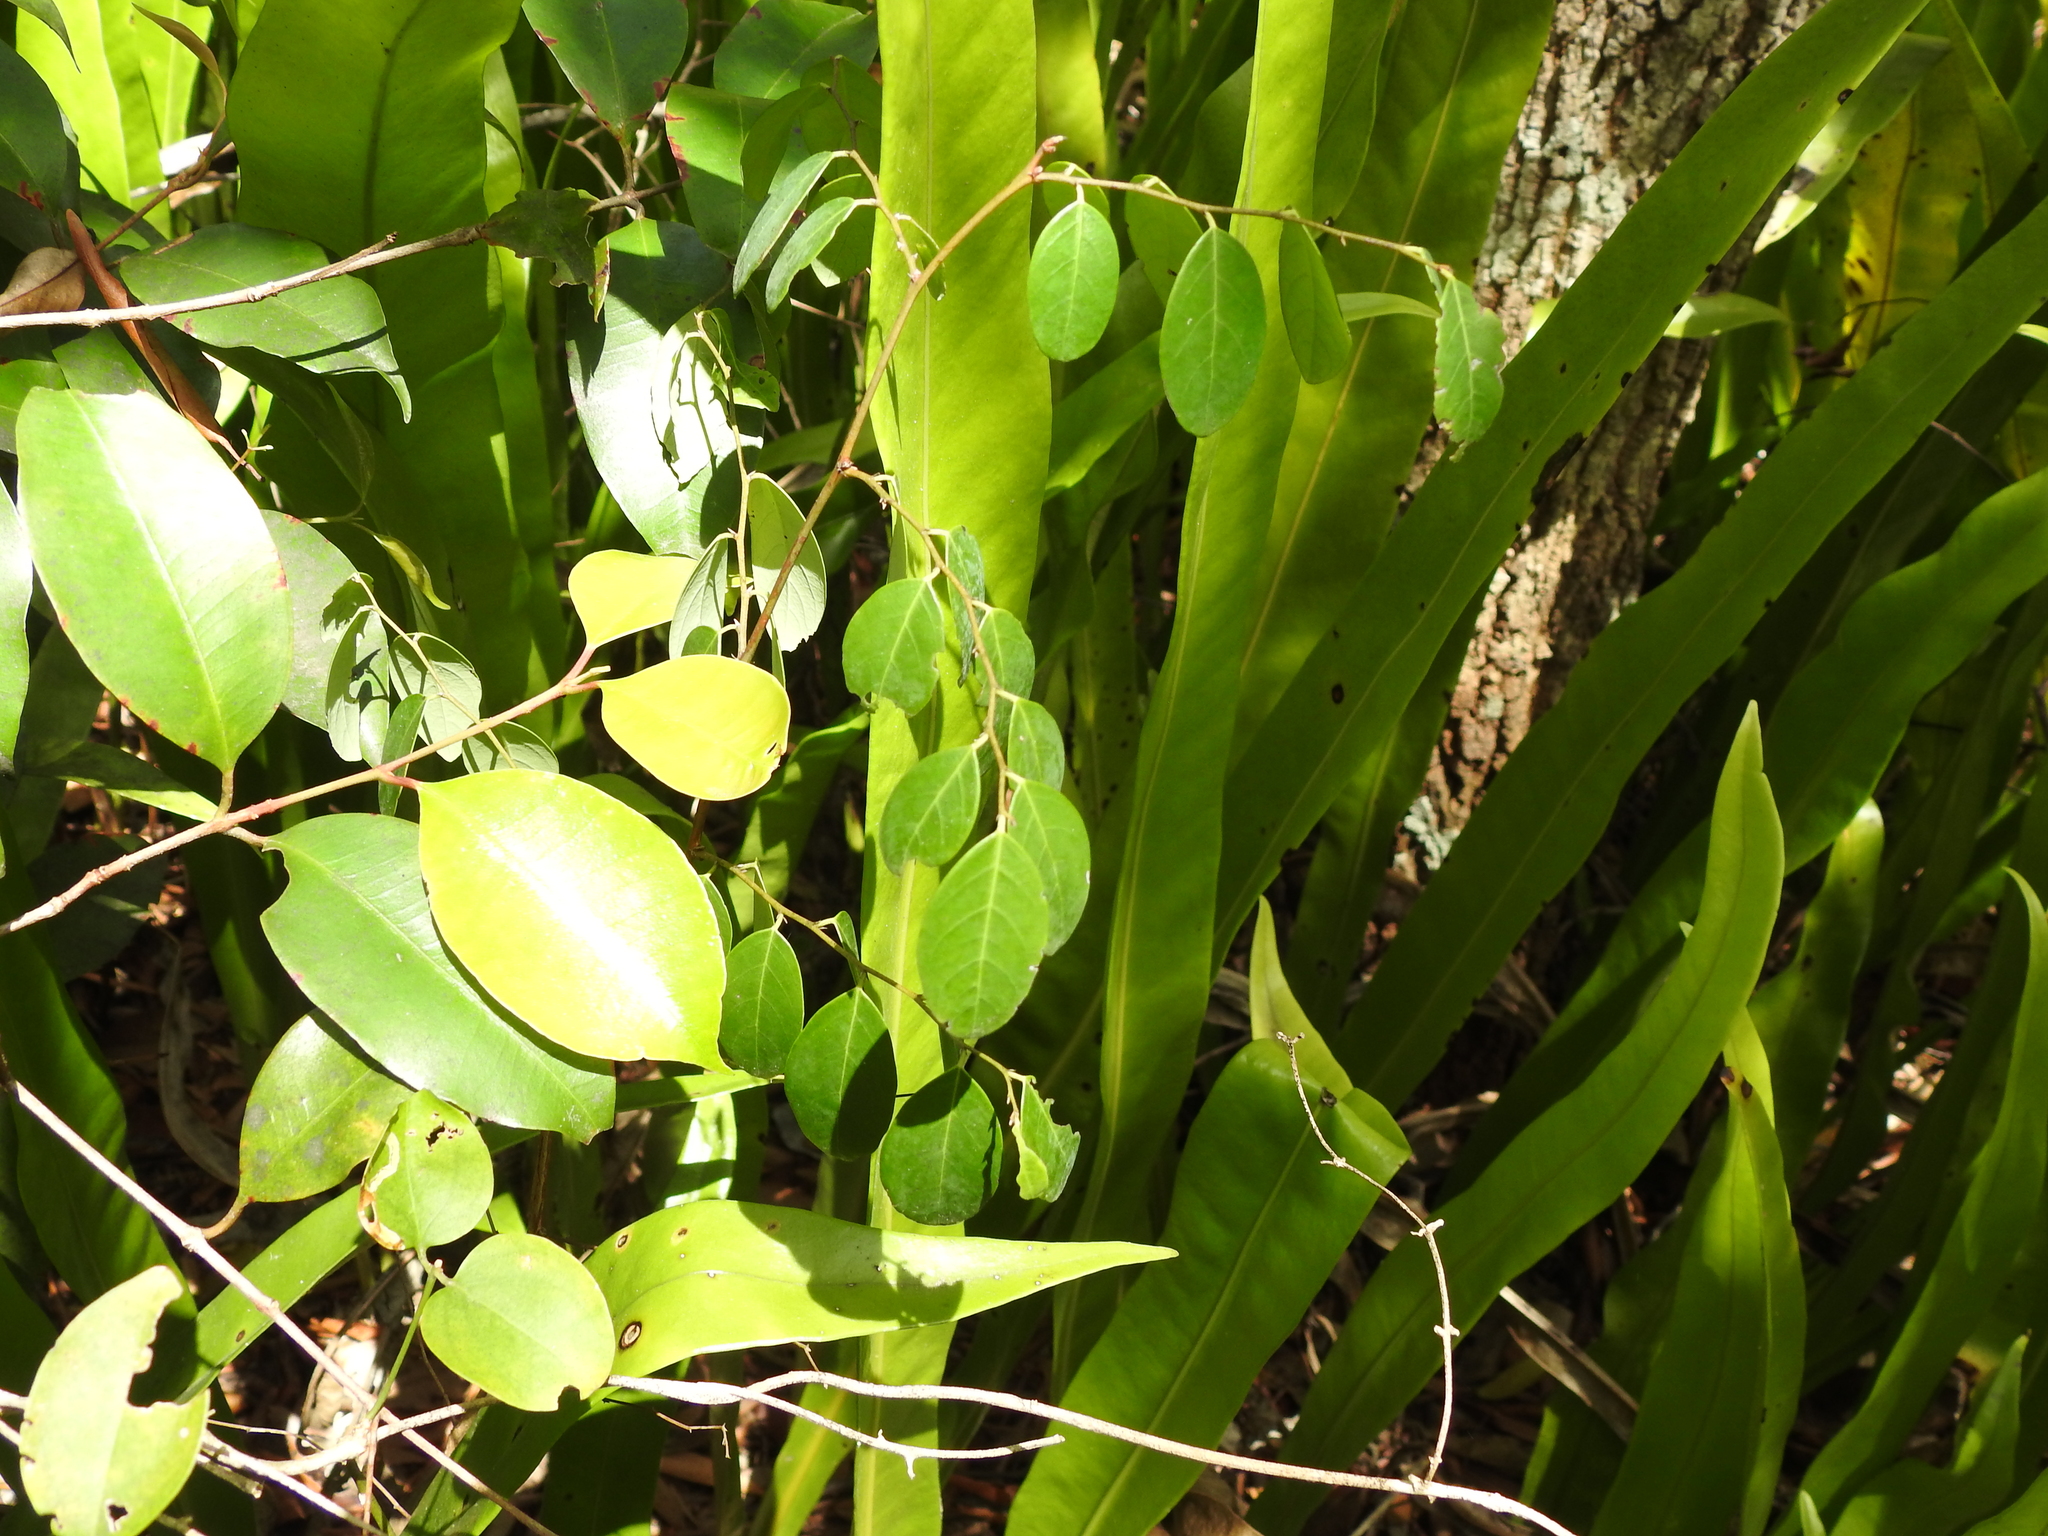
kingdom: Plantae
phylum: Tracheophyta
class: Magnoliopsida
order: Malpighiales
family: Phyllanthaceae
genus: Breynia
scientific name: Breynia oblongifolia
